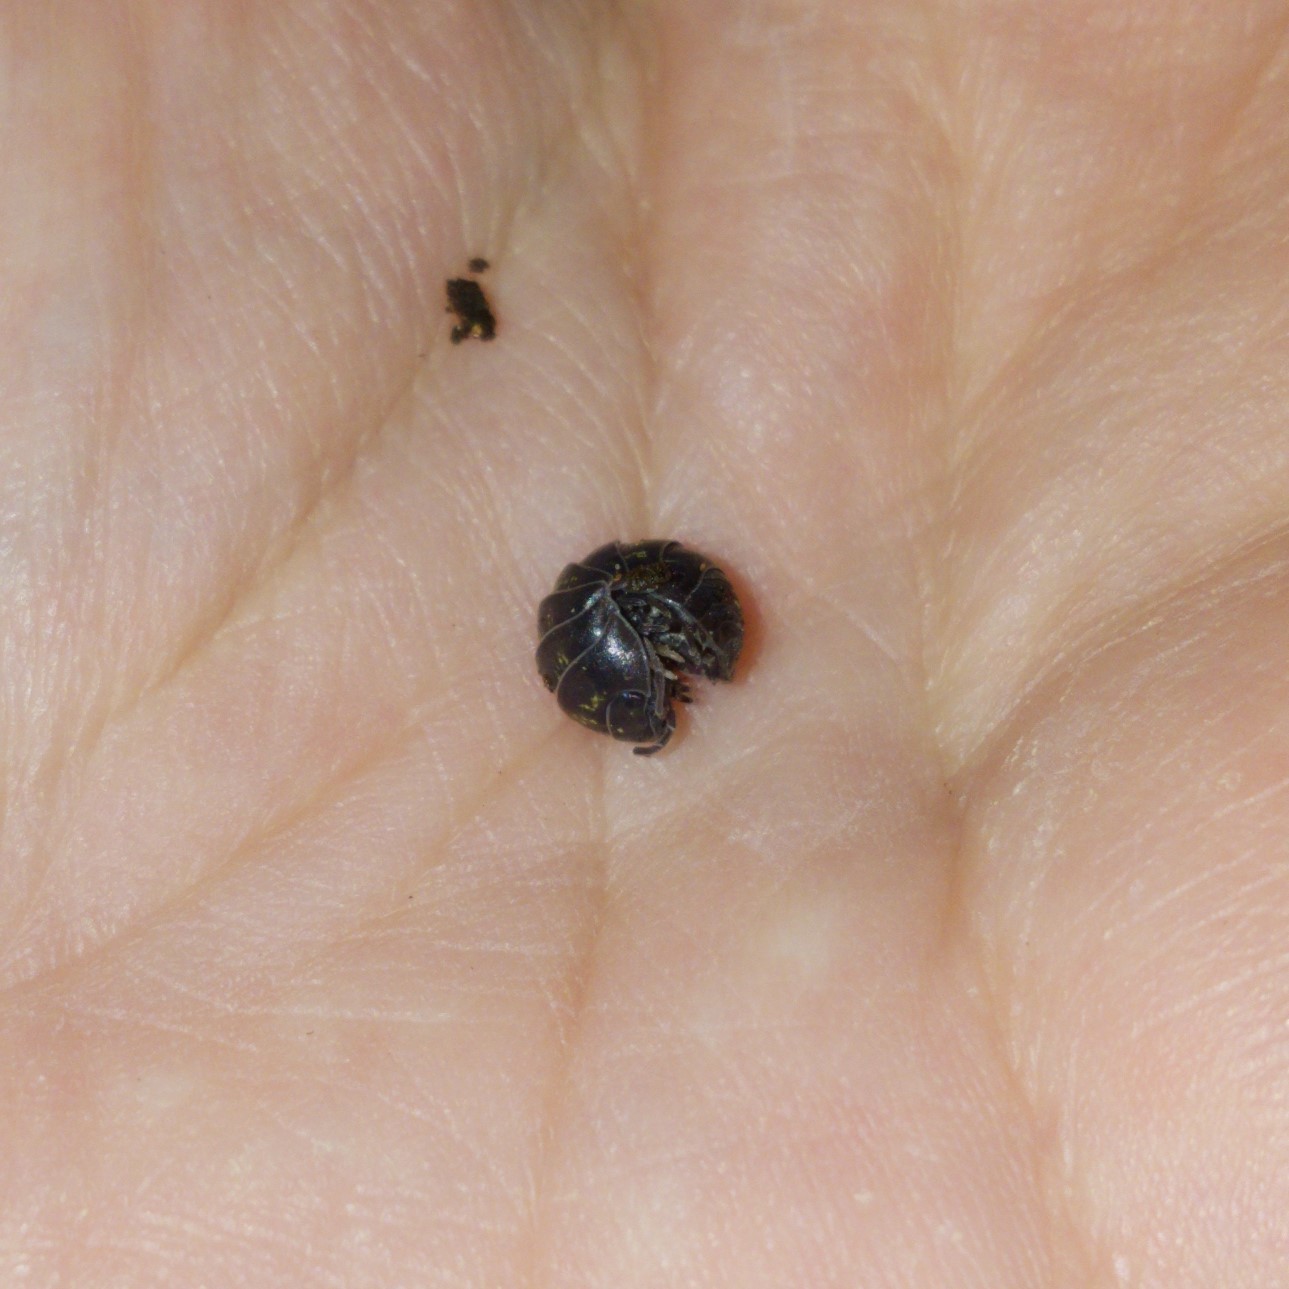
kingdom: Animalia
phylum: Arthropoda
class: Malacostraca
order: Isopoda
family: Armadillidiidae
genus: Armadillidium
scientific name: Armadillidium vulgare
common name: Common pill woodlouse
